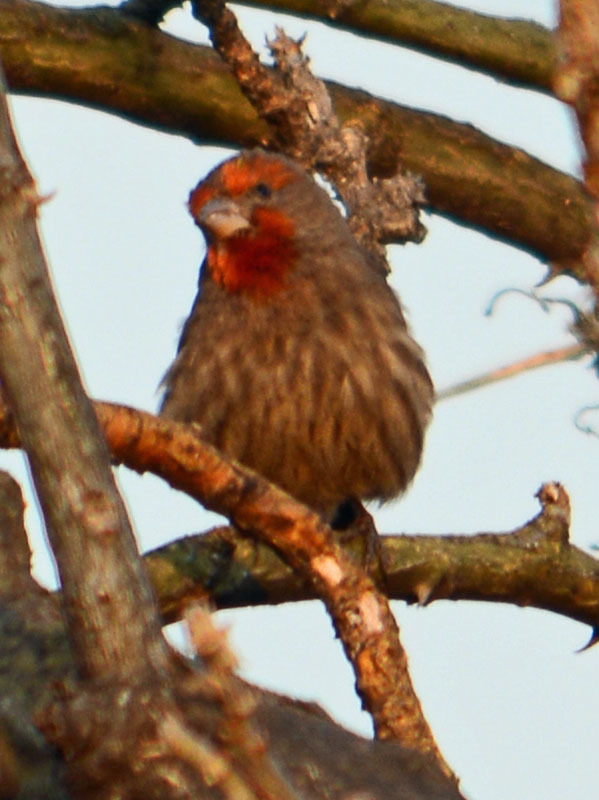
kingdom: Animalia
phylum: Chordata
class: Aves
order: Passeriformes
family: Fringillidae
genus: Haemorhous
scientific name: Haemorhous mexicanus
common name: House finch
